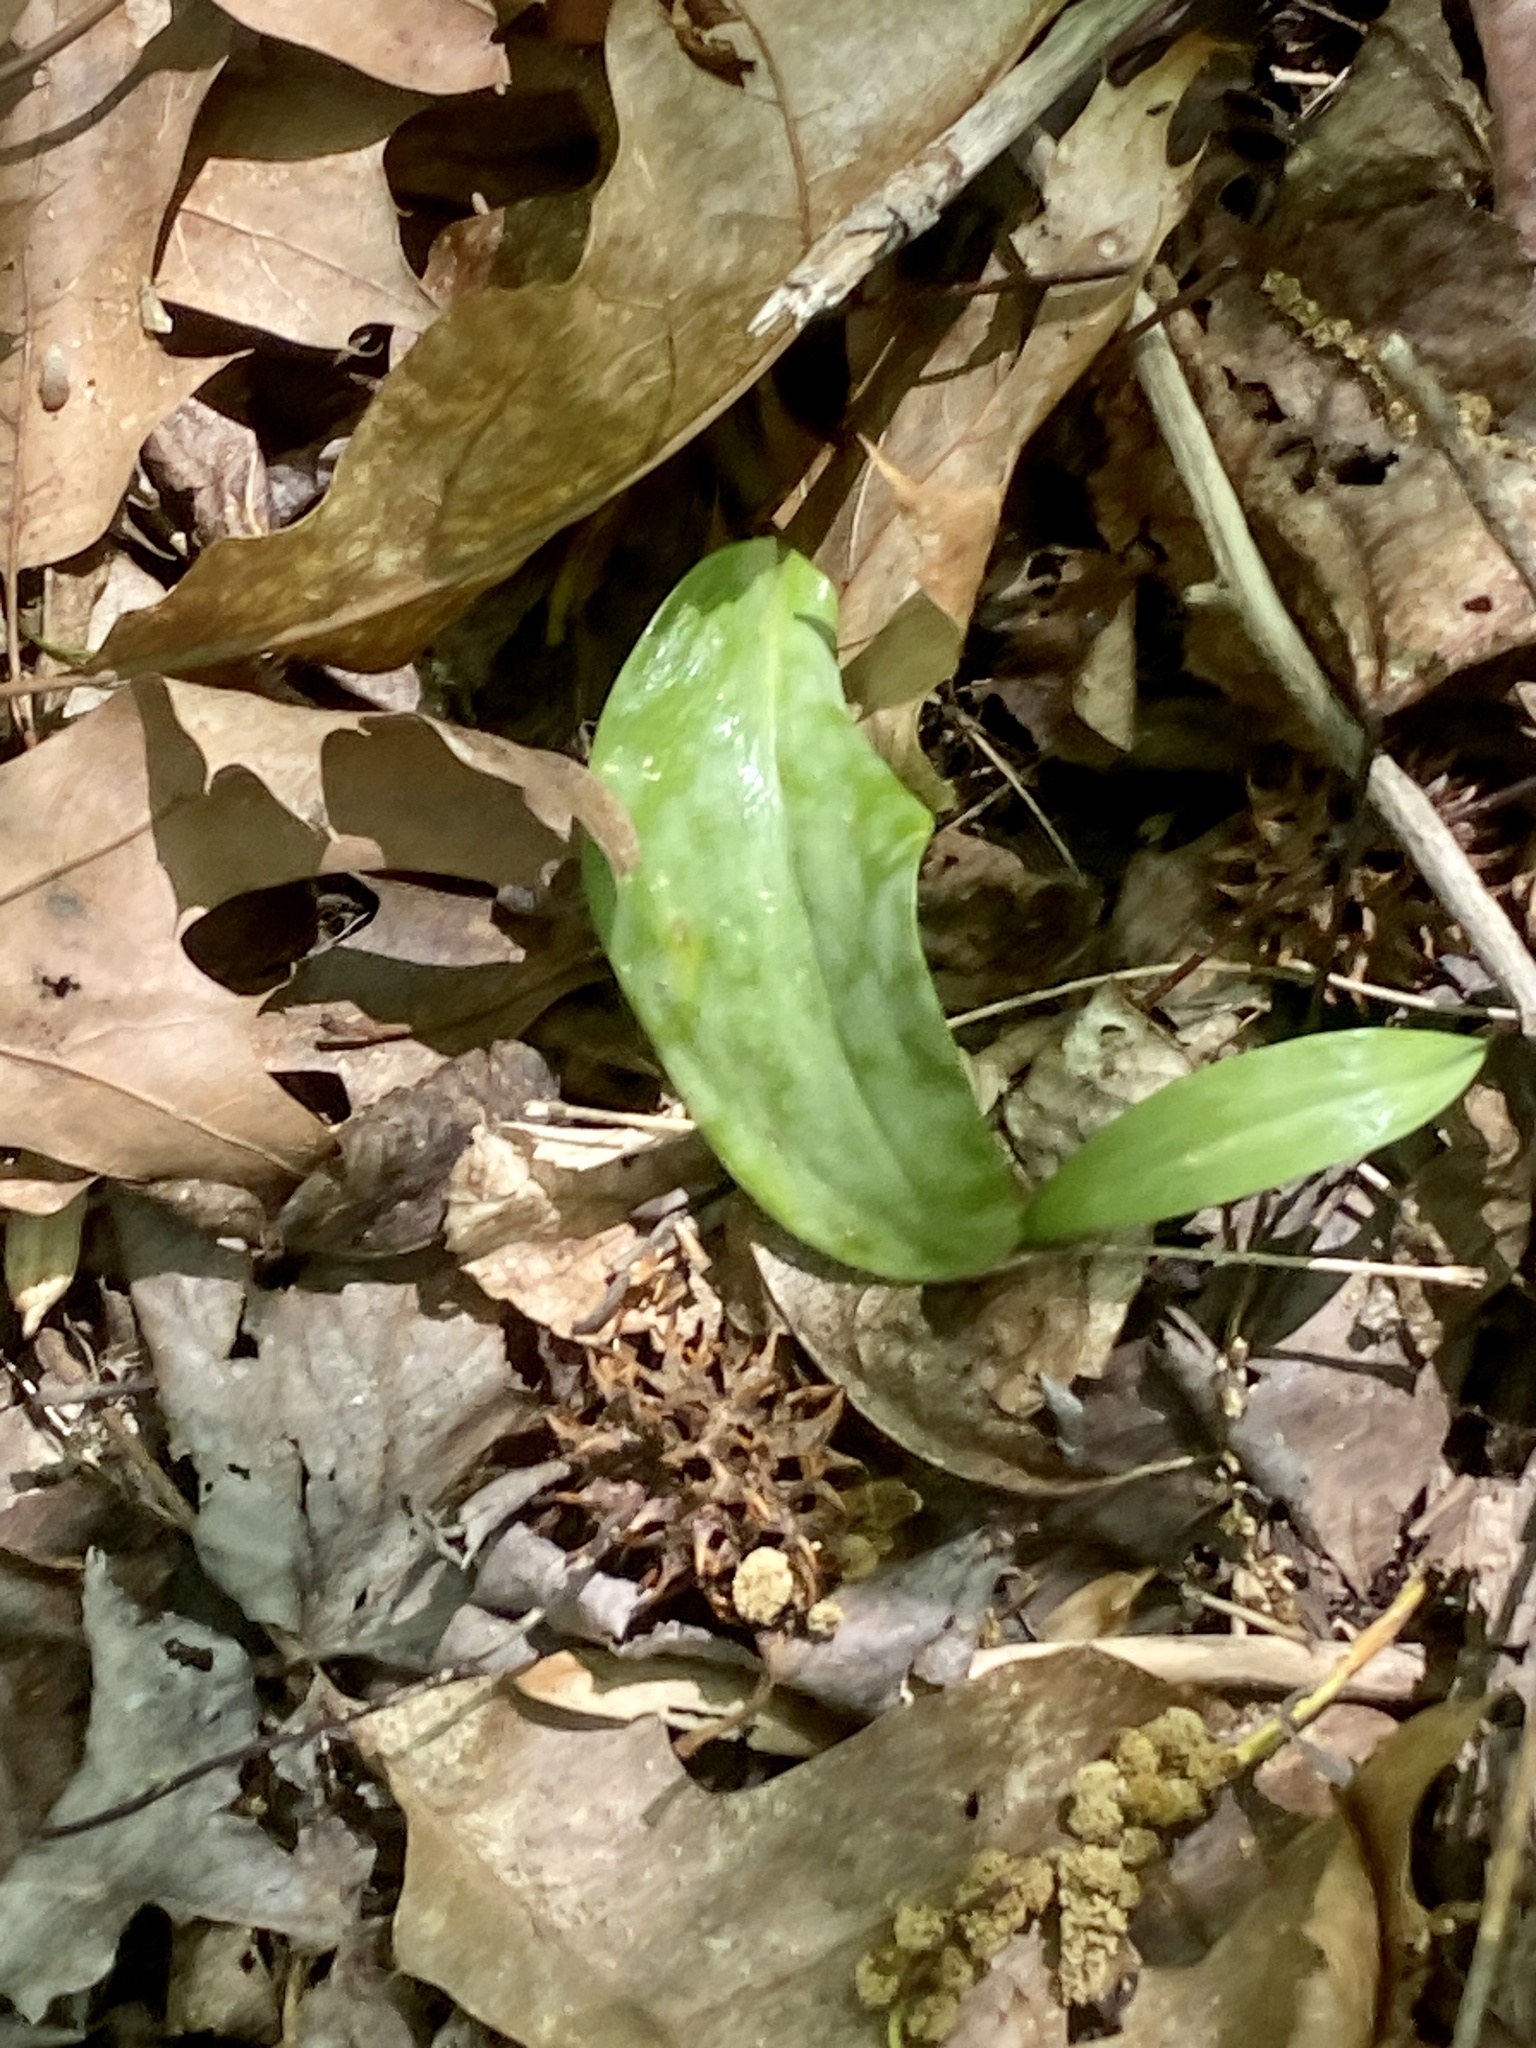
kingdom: Plantae
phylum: Tracheophyta
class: Liliopsida
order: Liliales
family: Liliaceae
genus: Erythronium
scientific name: Erythronium americanum
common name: Yellow adder's-tongue
